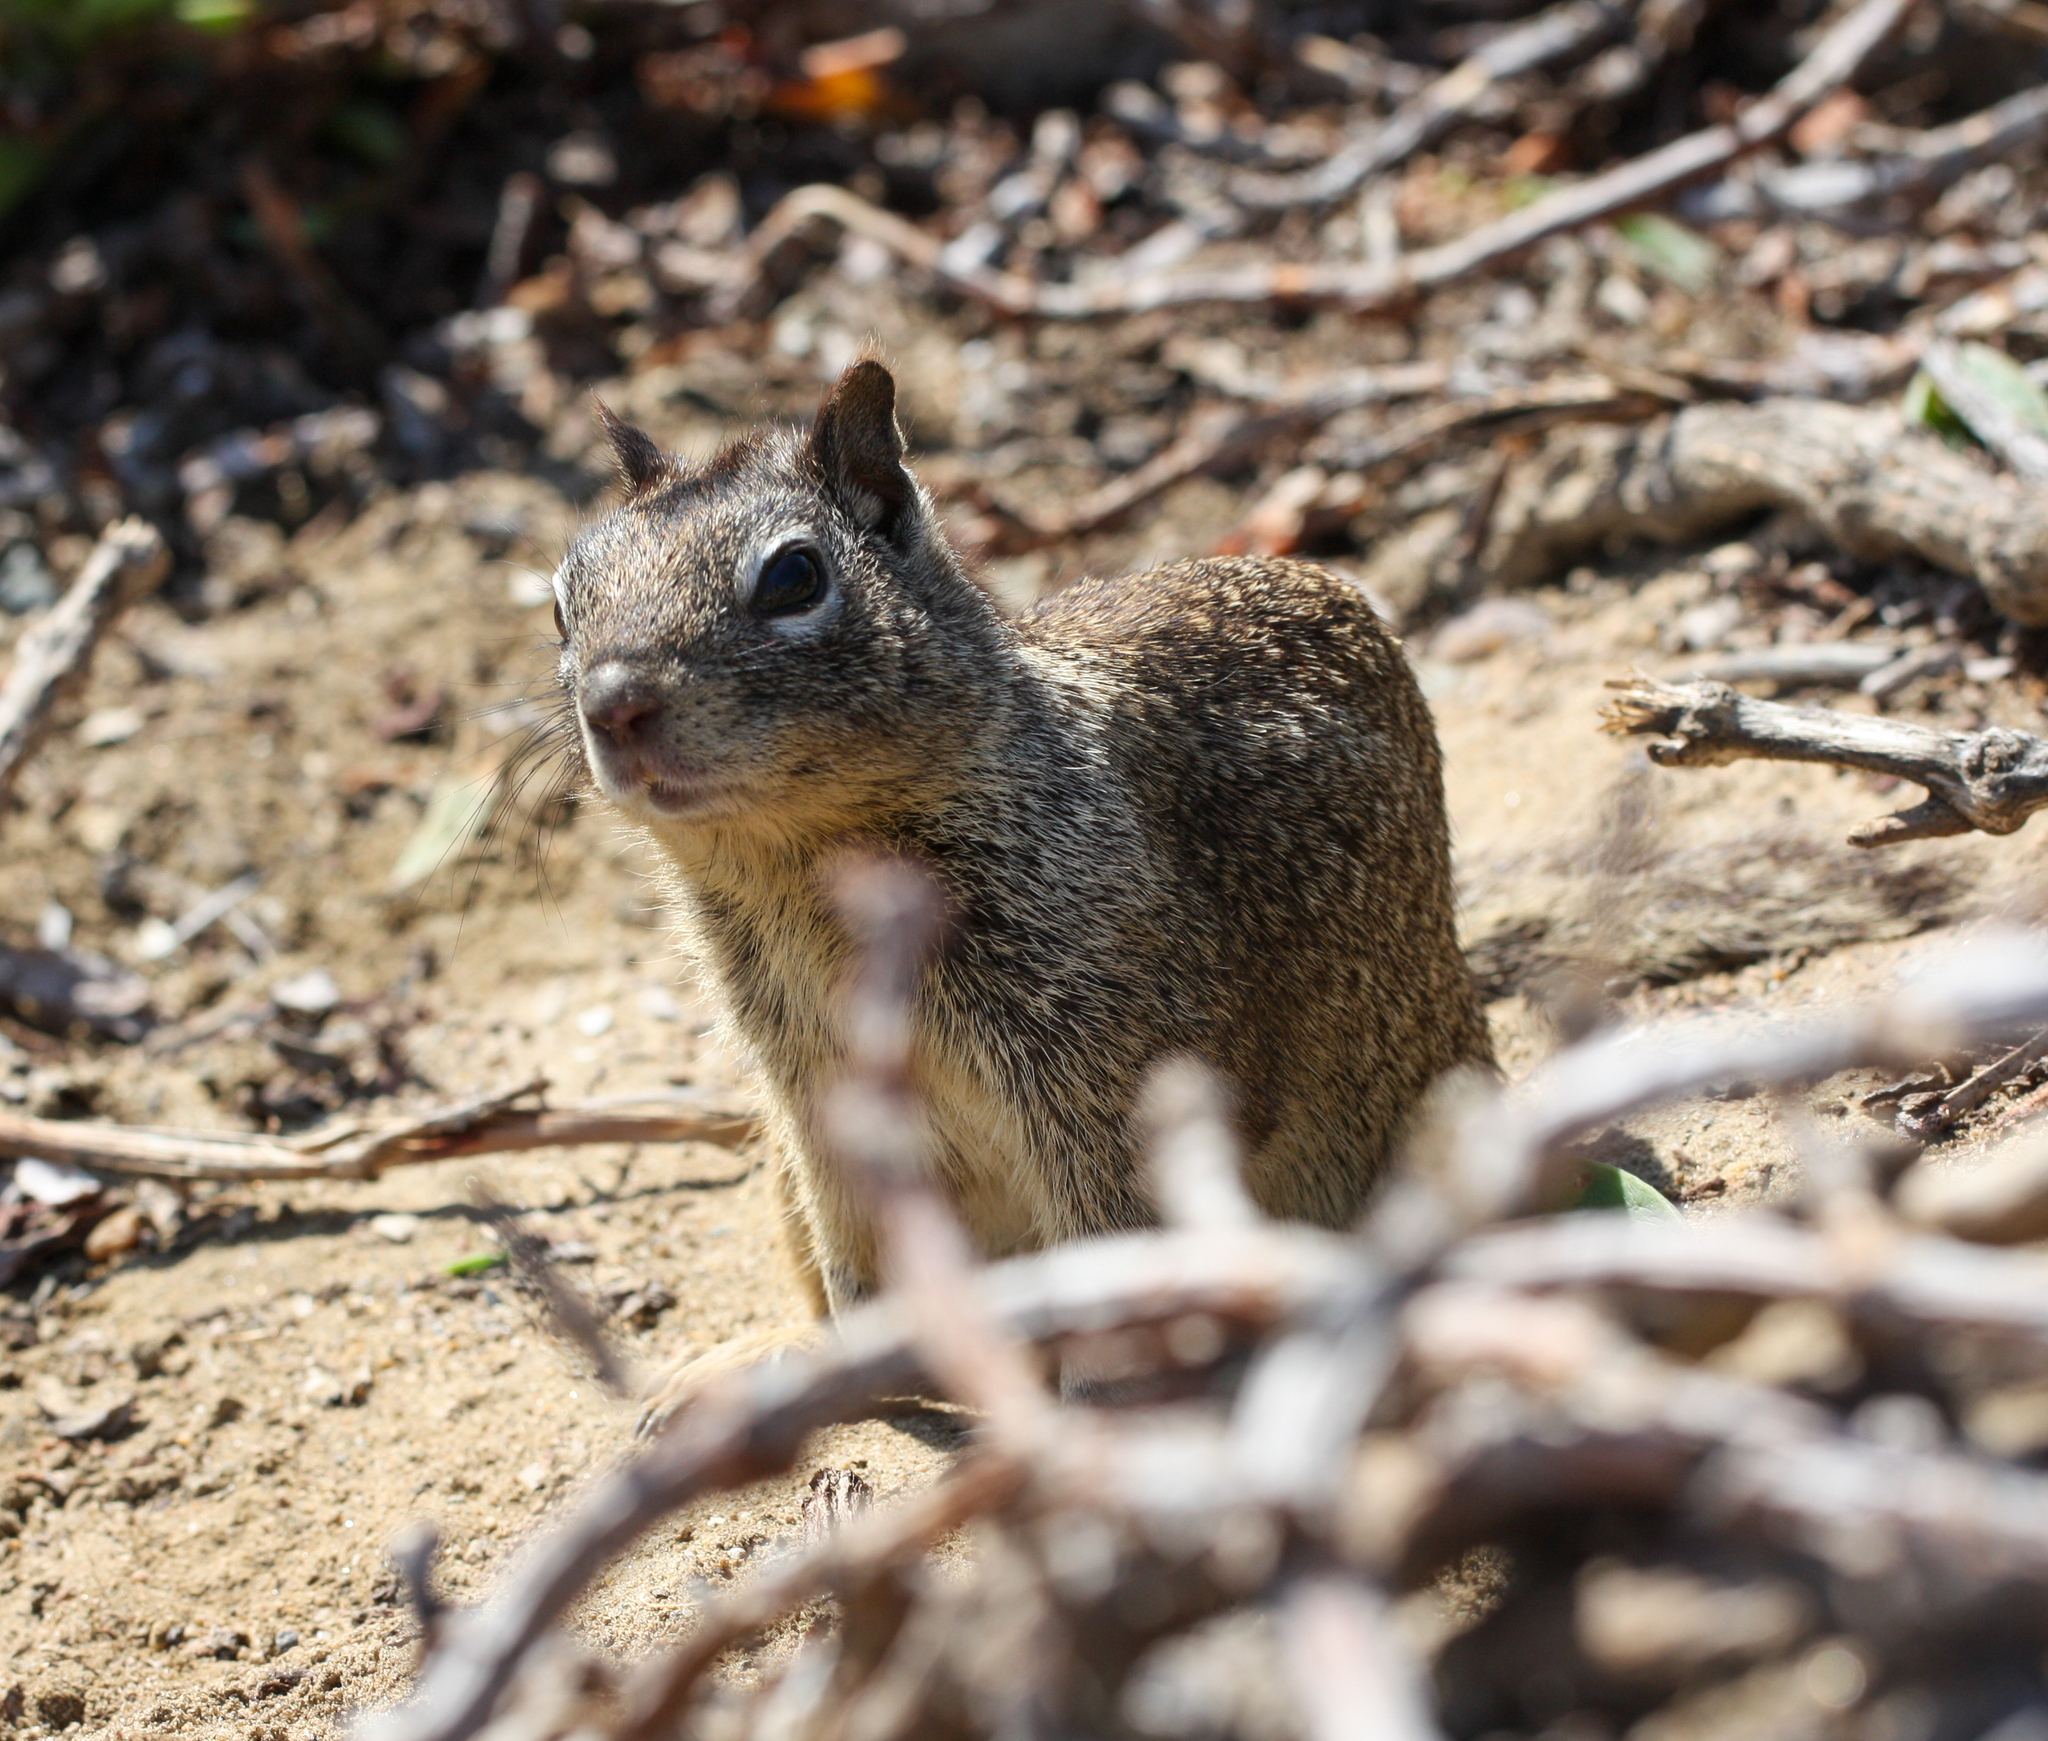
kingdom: Animalia
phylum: Chordata
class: Mammalia
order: Rodentia
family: Sciuridae
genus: Otospermophilus
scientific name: Otospermophilus beecheyi
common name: California ground squirrel
